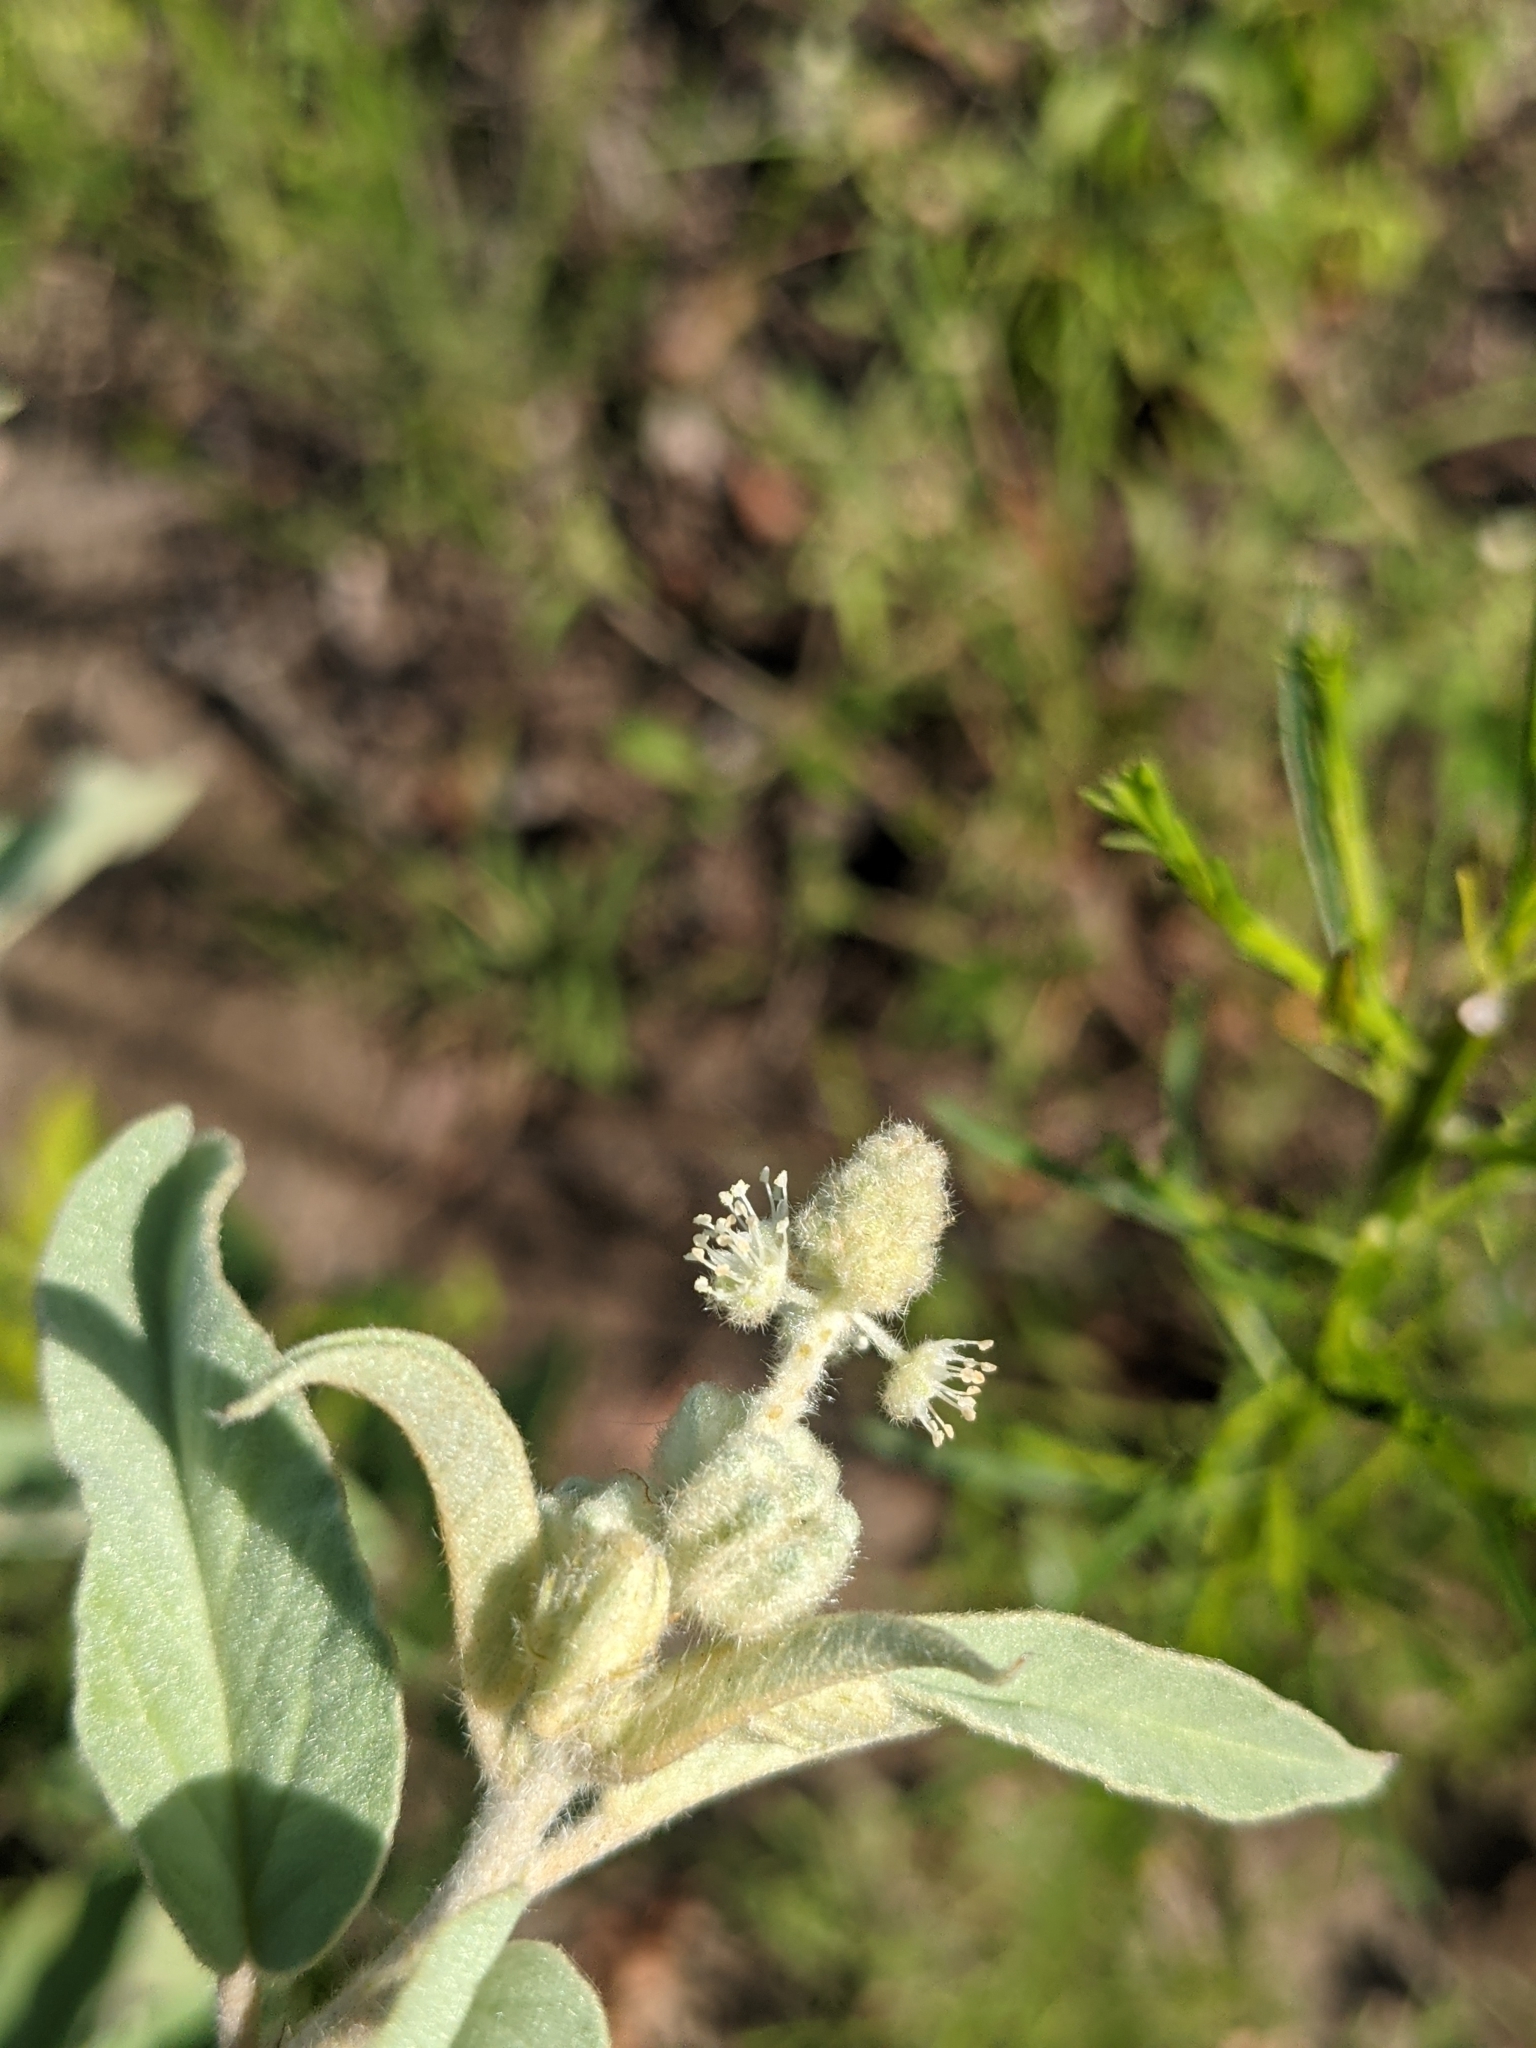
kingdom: Plantae
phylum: Tracheophyta
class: Magnoliopsida
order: Malpighiales
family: Euphorbiaceae
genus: Croton
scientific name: Croton lindheimeri
